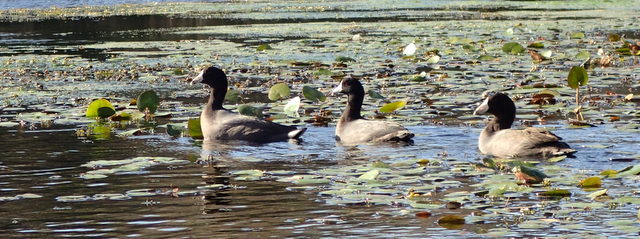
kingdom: Animalia
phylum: Chordata
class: Aves
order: Gruiformes
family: Rallidae
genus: Fulica
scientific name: Fulica americana
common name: American coot
